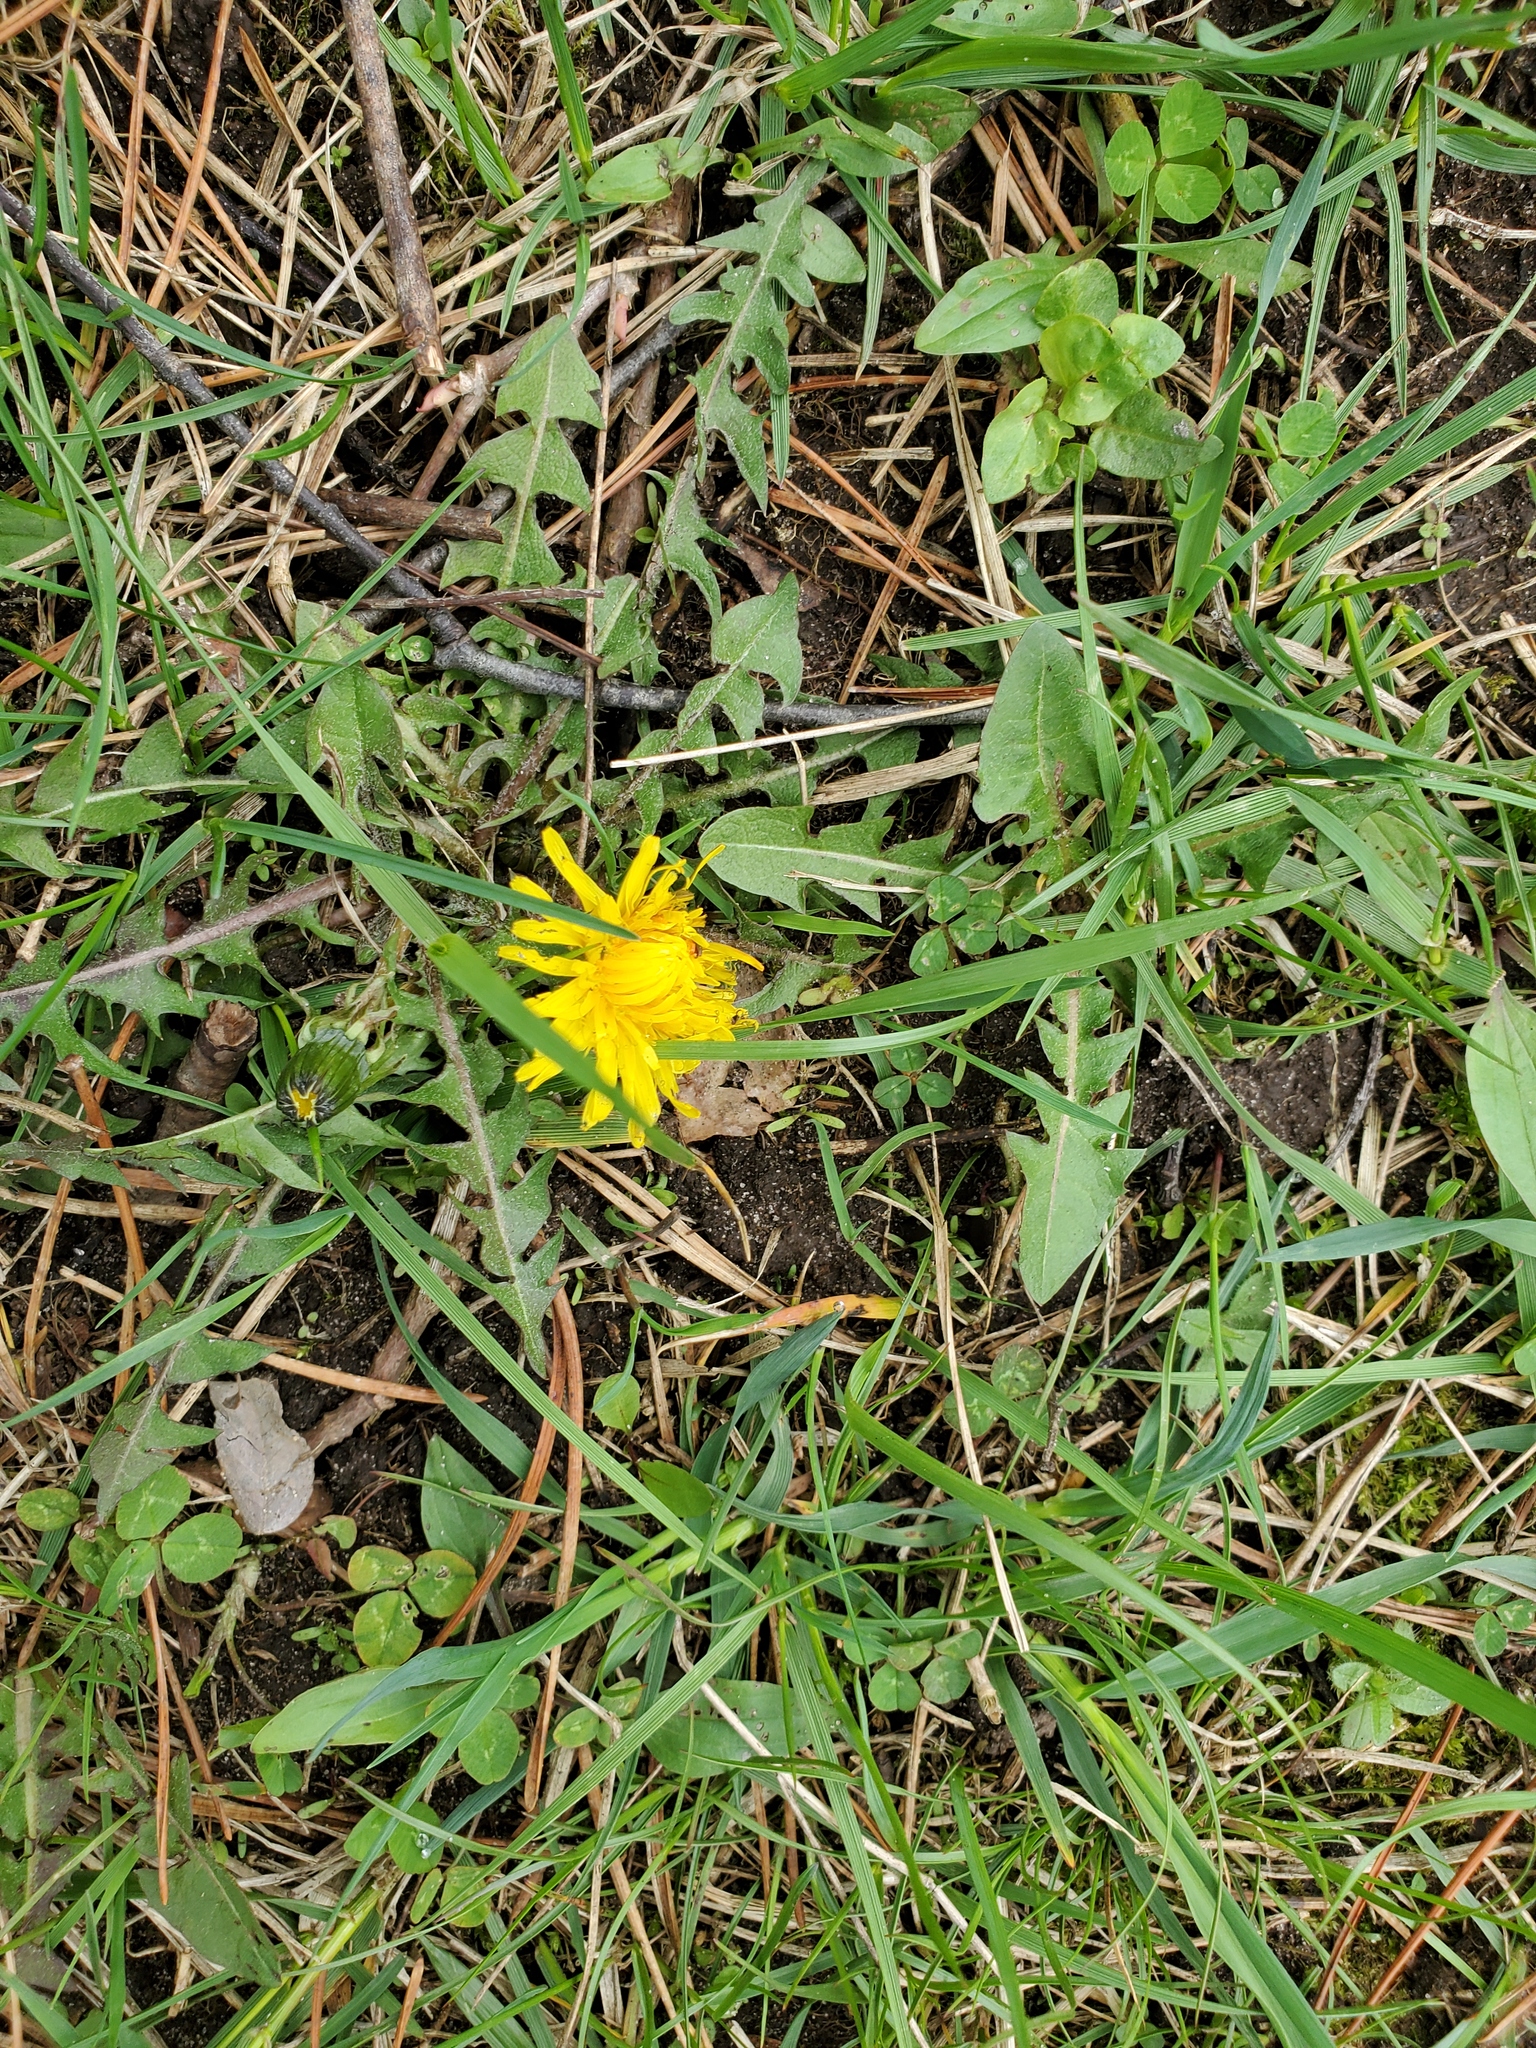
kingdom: Plantae
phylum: Tracheophyta
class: Magnoliopsida
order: Asterales
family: Asteraceae
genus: Taraxacum
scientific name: Taraxacum officinale
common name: Common dandelion
